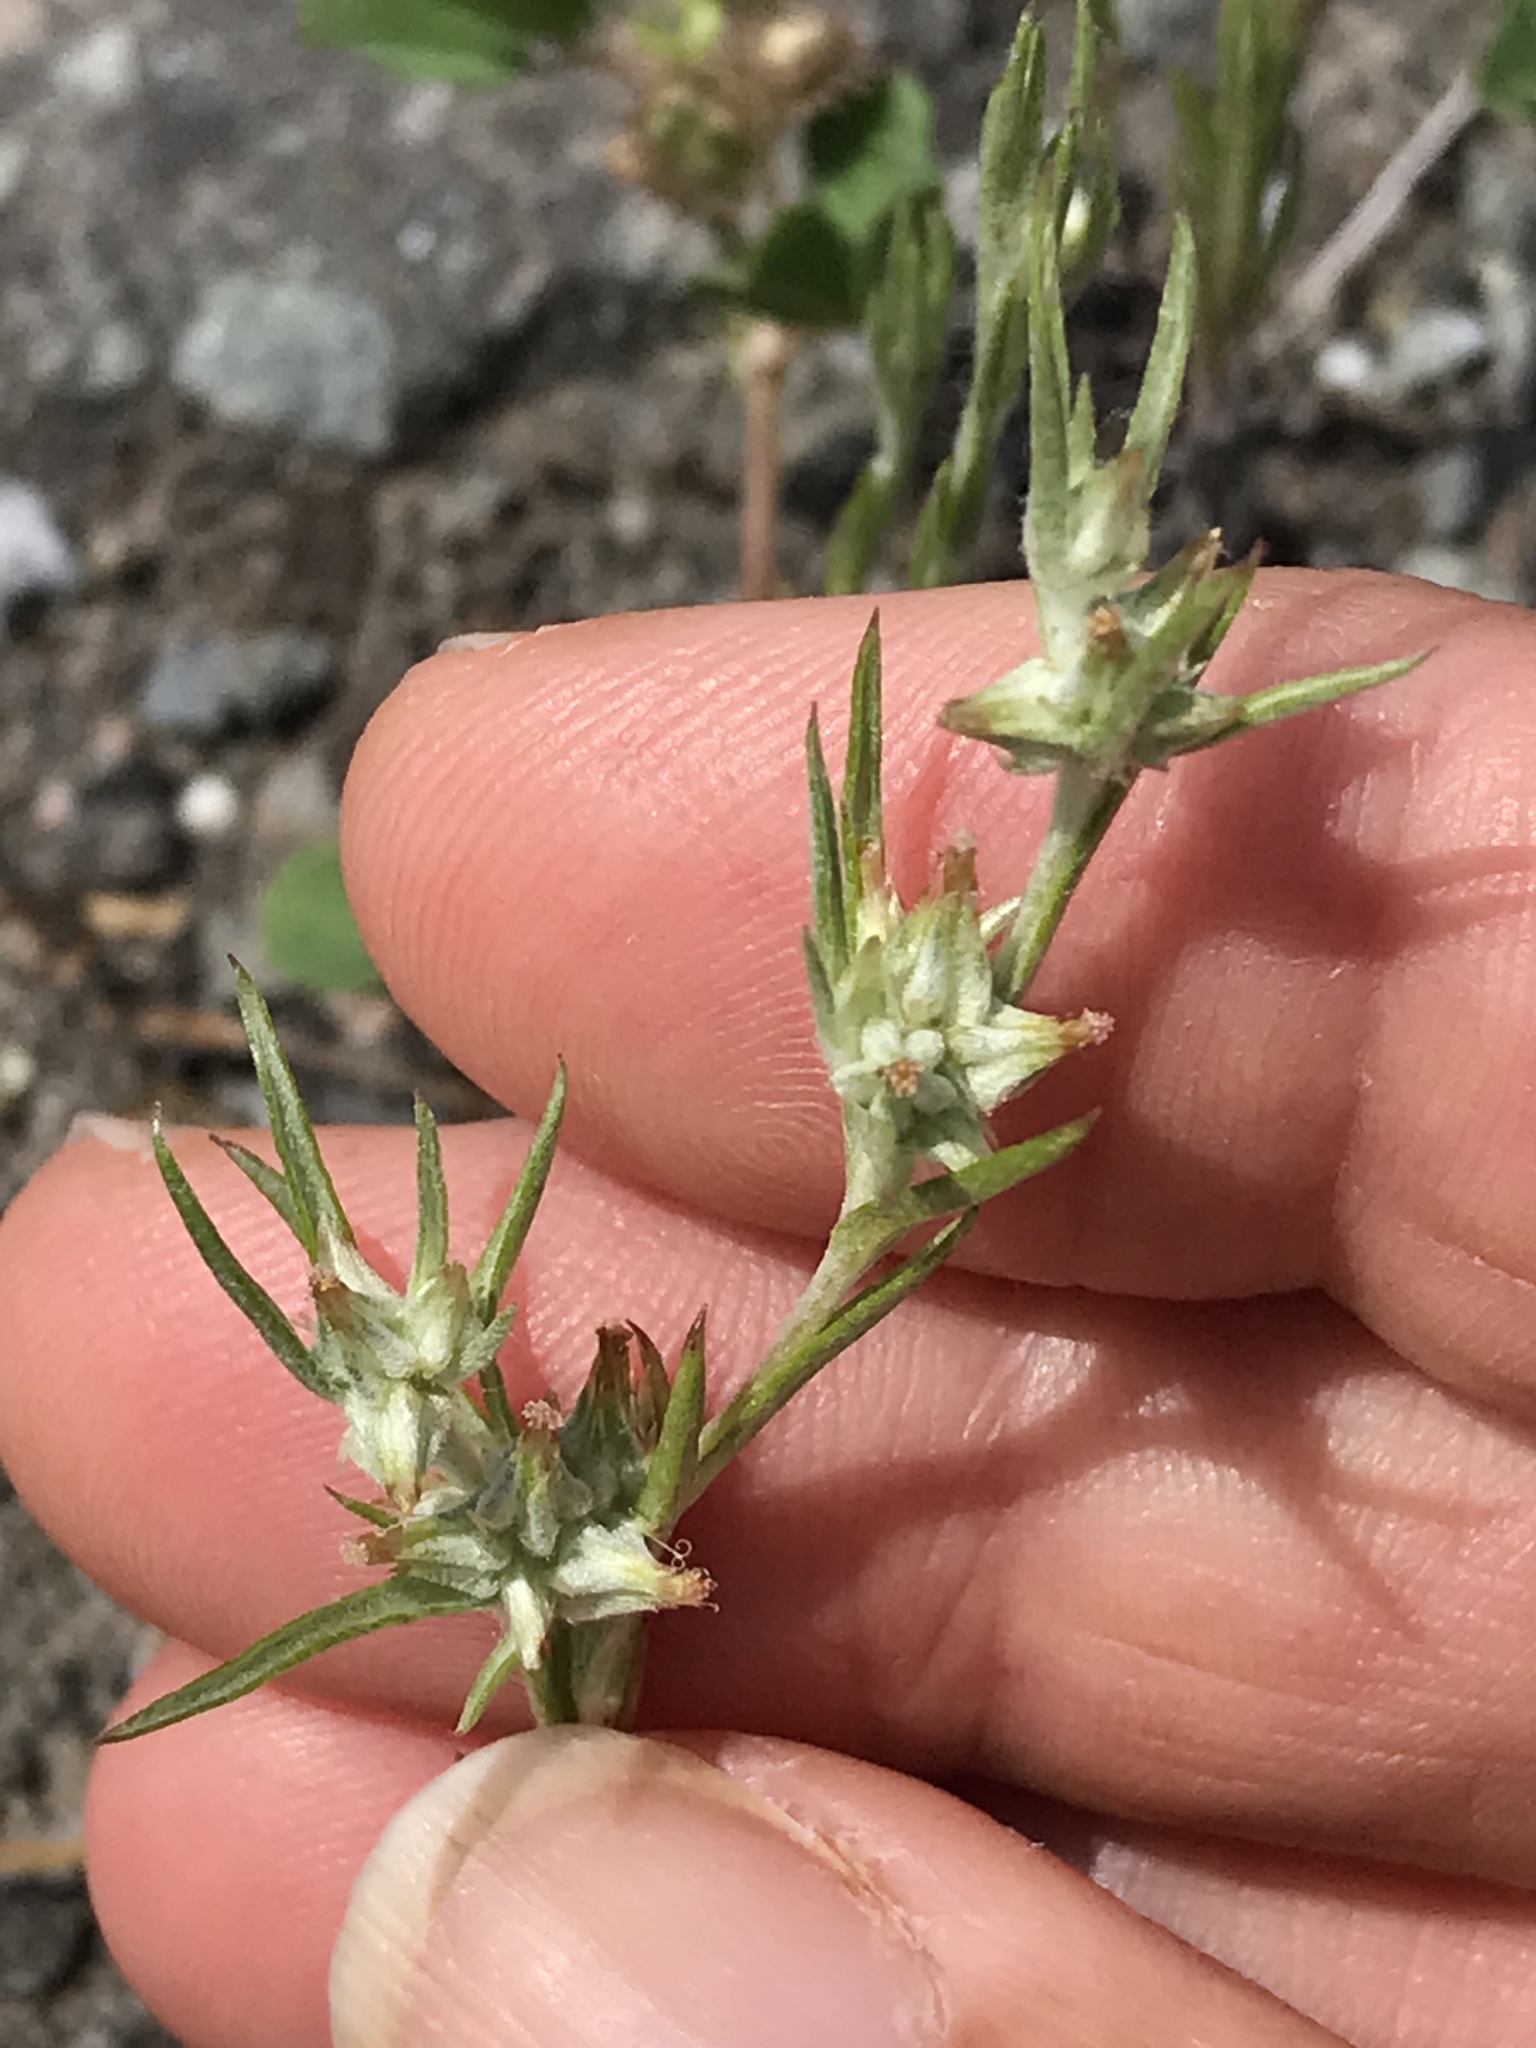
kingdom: Plantae
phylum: Tracheophyta
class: Magnoliopsida
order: Asterales
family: Asteraceae
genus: Logfia
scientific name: Logfia gallica
